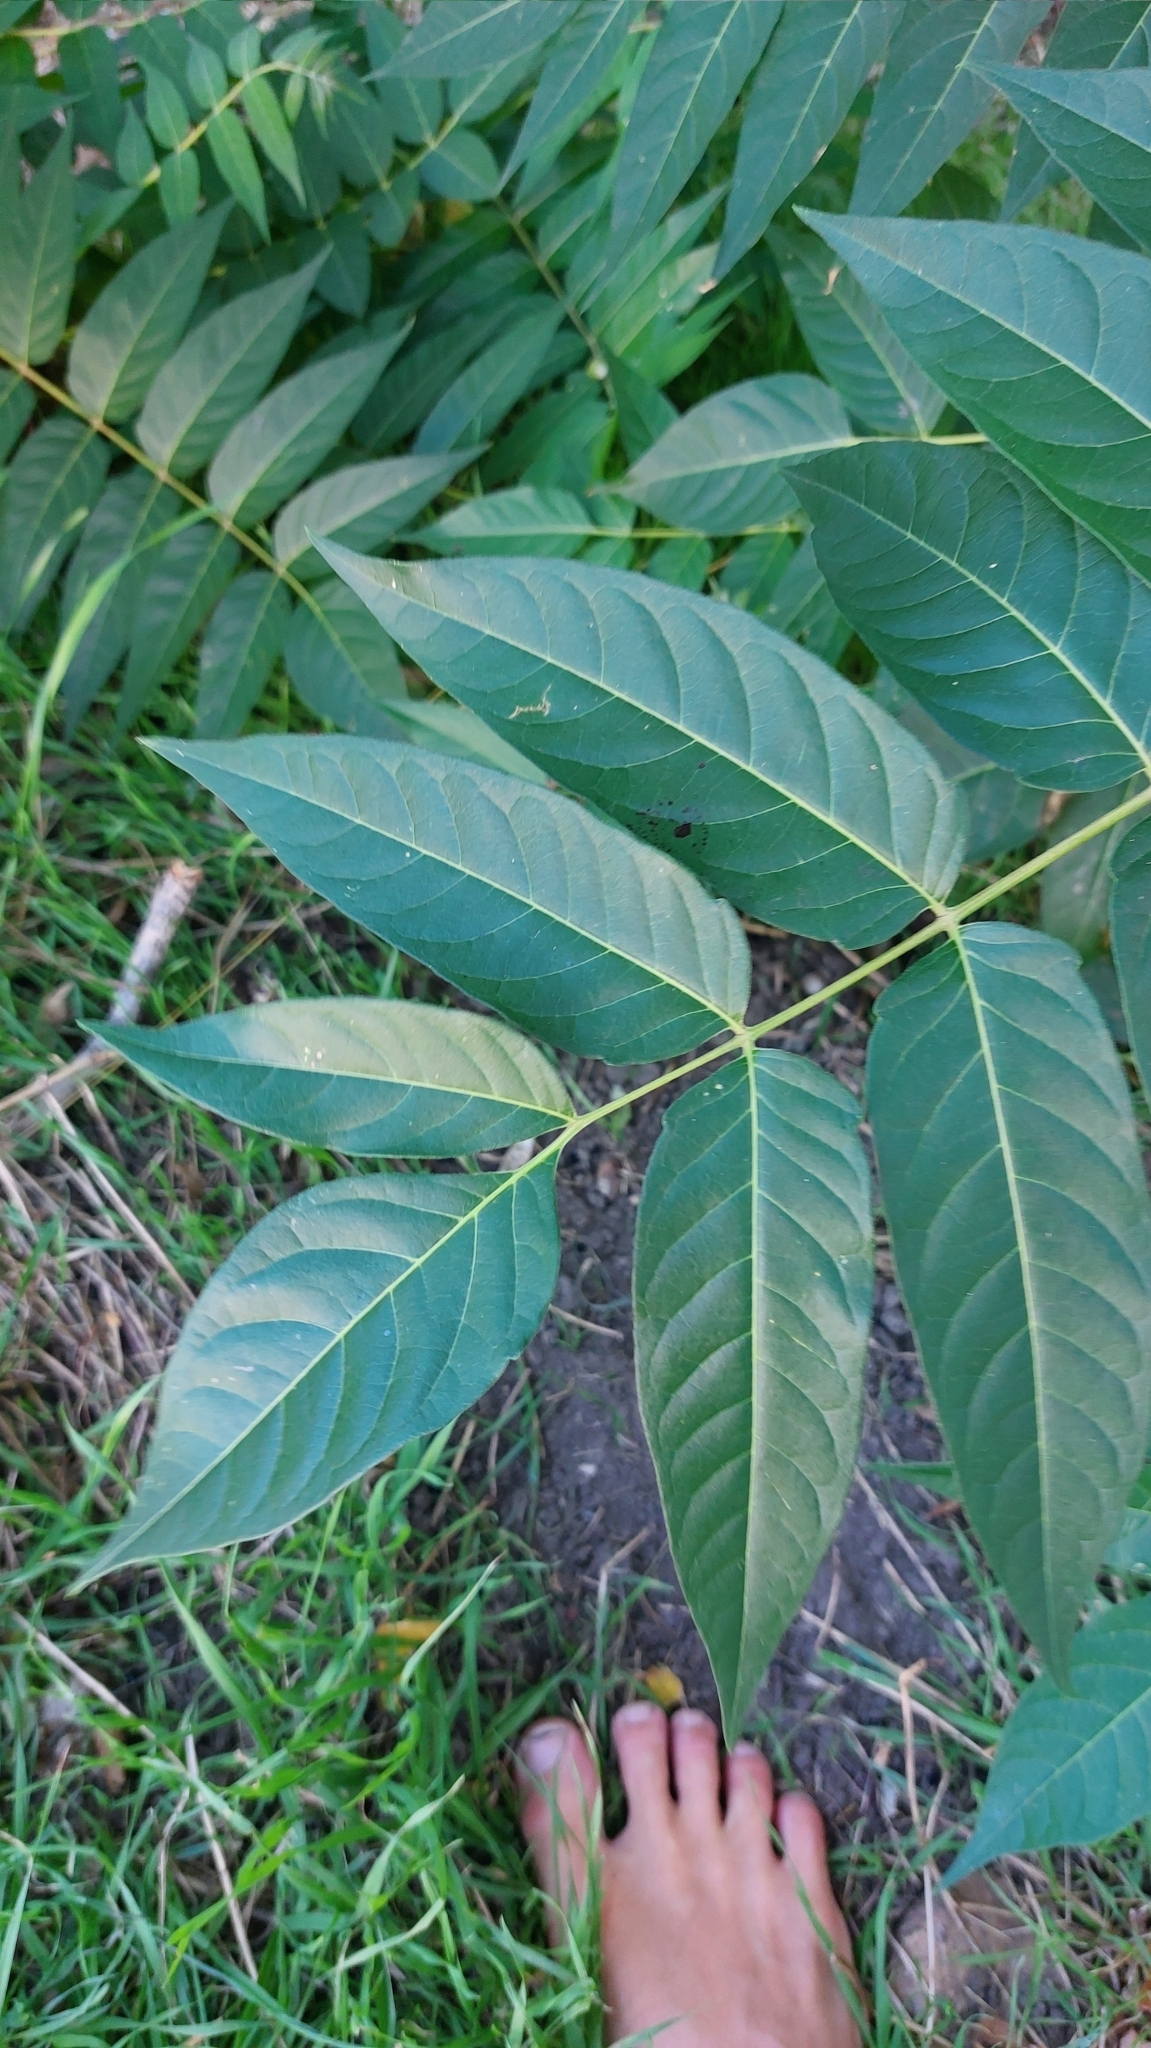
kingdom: Plantae
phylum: Tracheophyta
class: Magnoliopsida
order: Sapindales
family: Simaroubaceae
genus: Ailanthus
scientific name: Ailanthus altissima
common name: Tree-of-heaven
